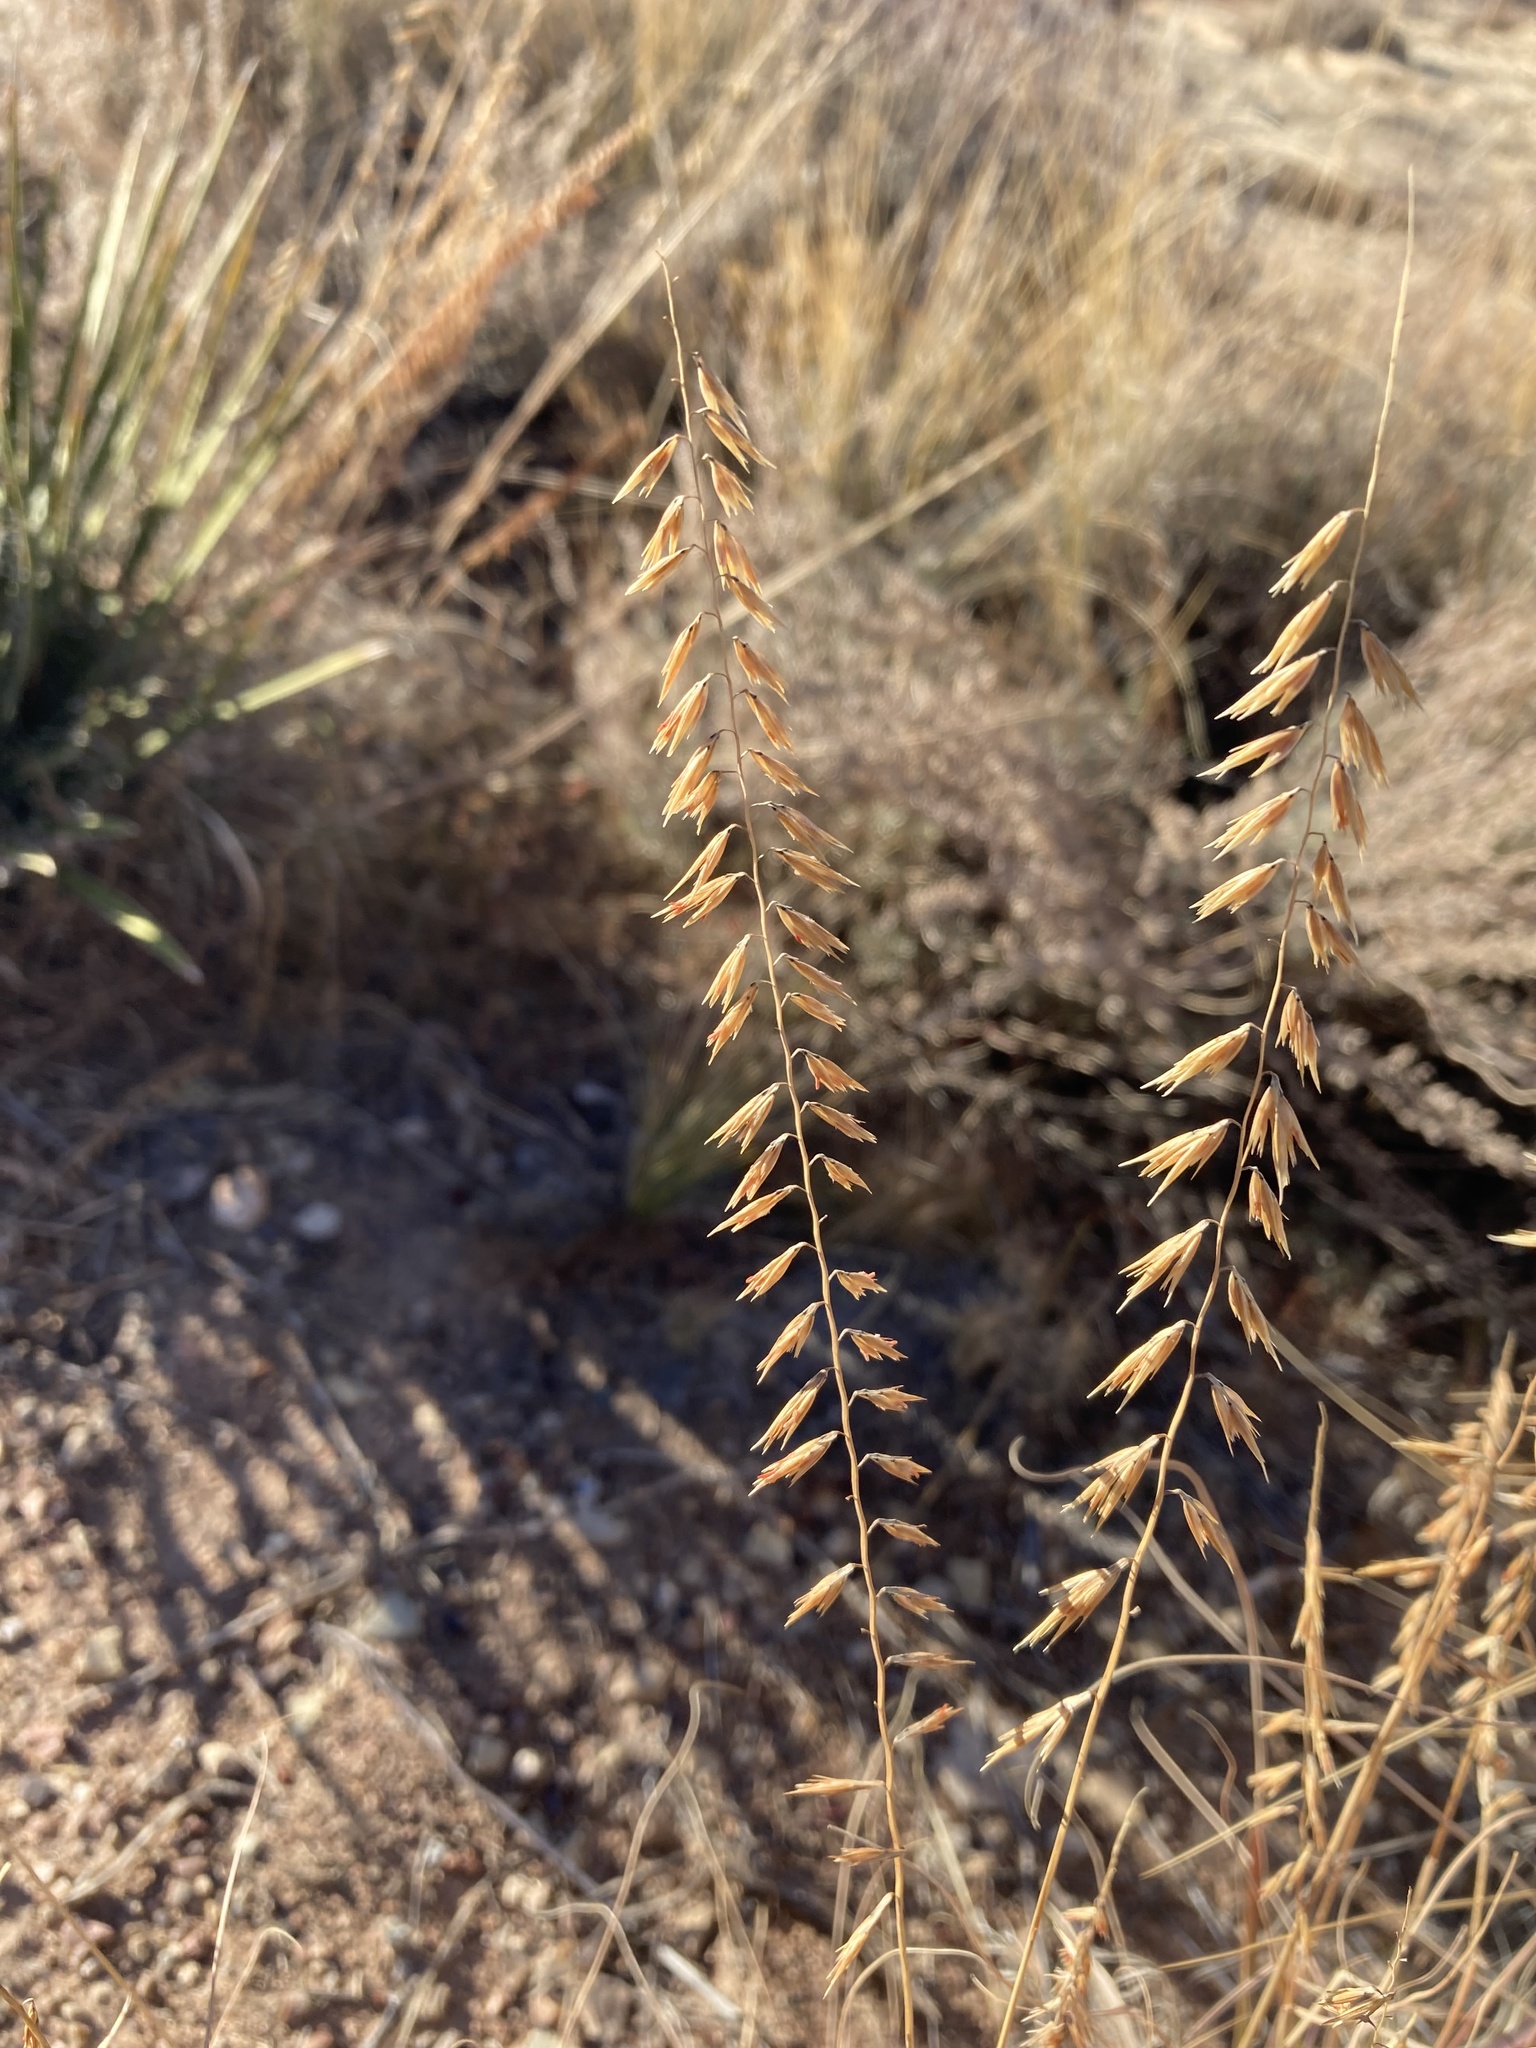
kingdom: Plantae
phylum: Tracheophyta
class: Liliopsida
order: Poales
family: Poaceae
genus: Bouteloua
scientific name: Bouteloua curtipendula
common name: Side-oats grama
